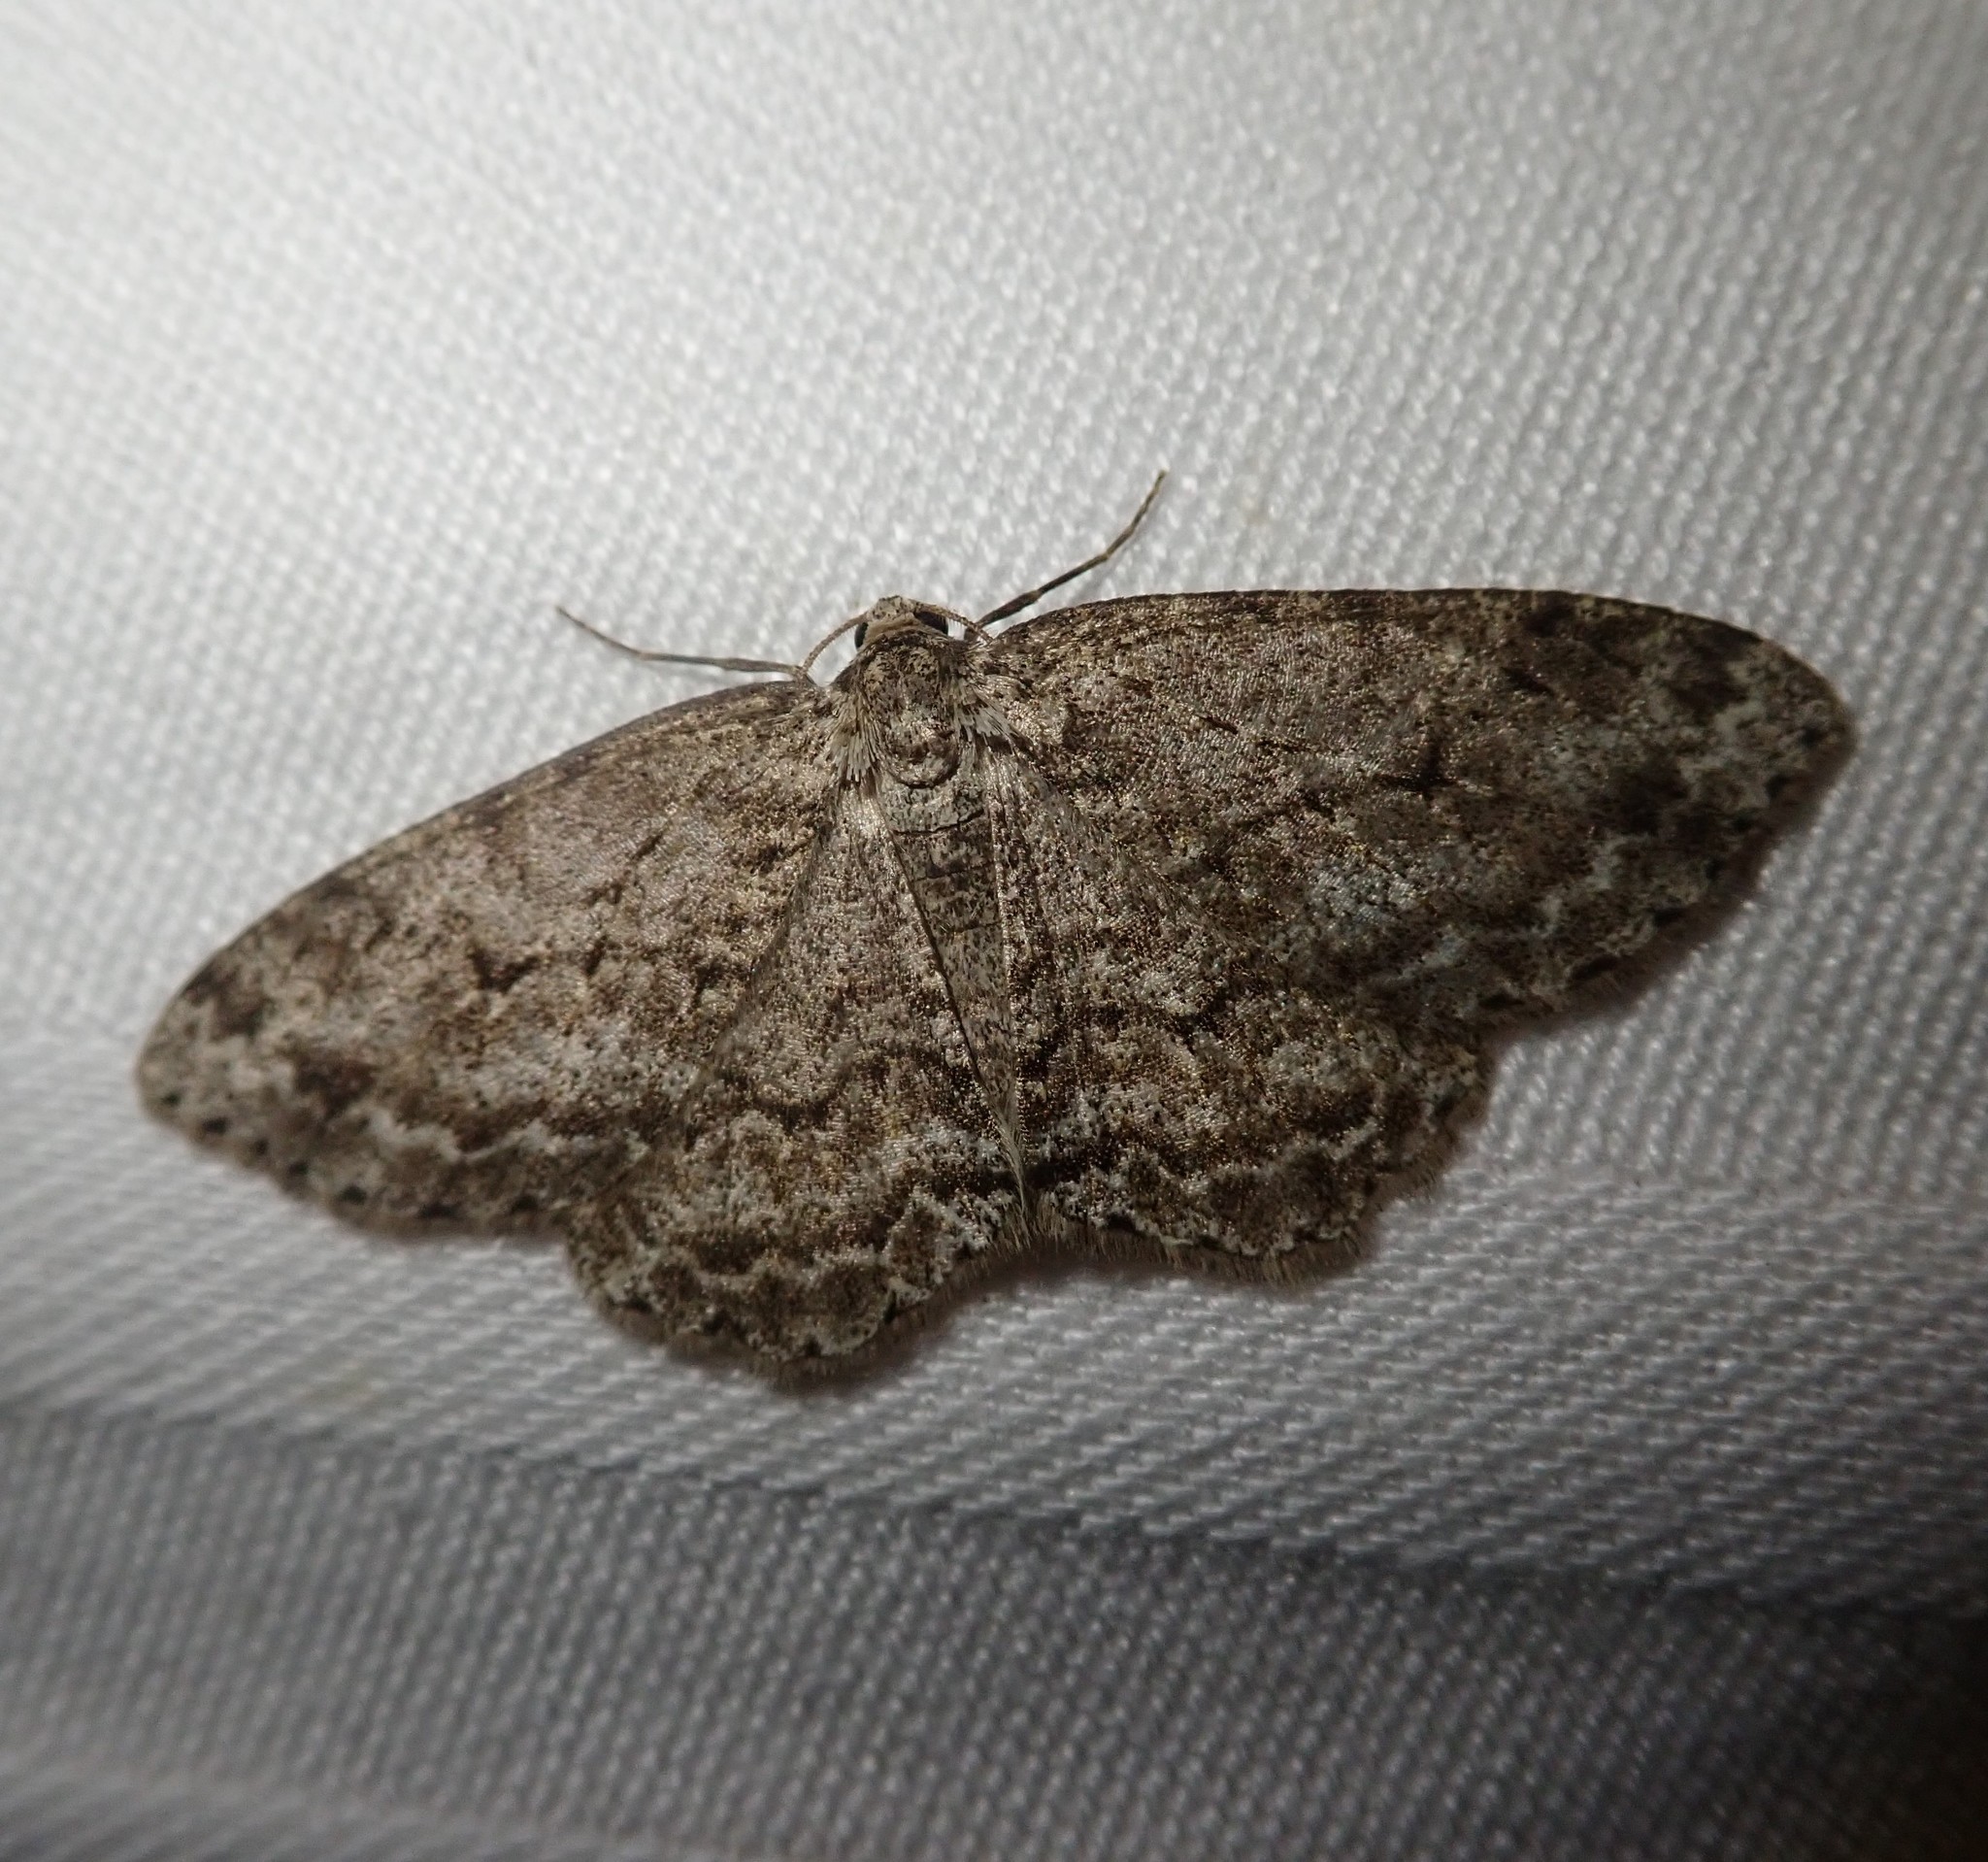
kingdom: Animalia
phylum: Arthropoda
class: Insecta
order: Lepidoptera
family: Geometridae
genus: Ectropis
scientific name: Ectropis crepuscularia
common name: Engrailed
